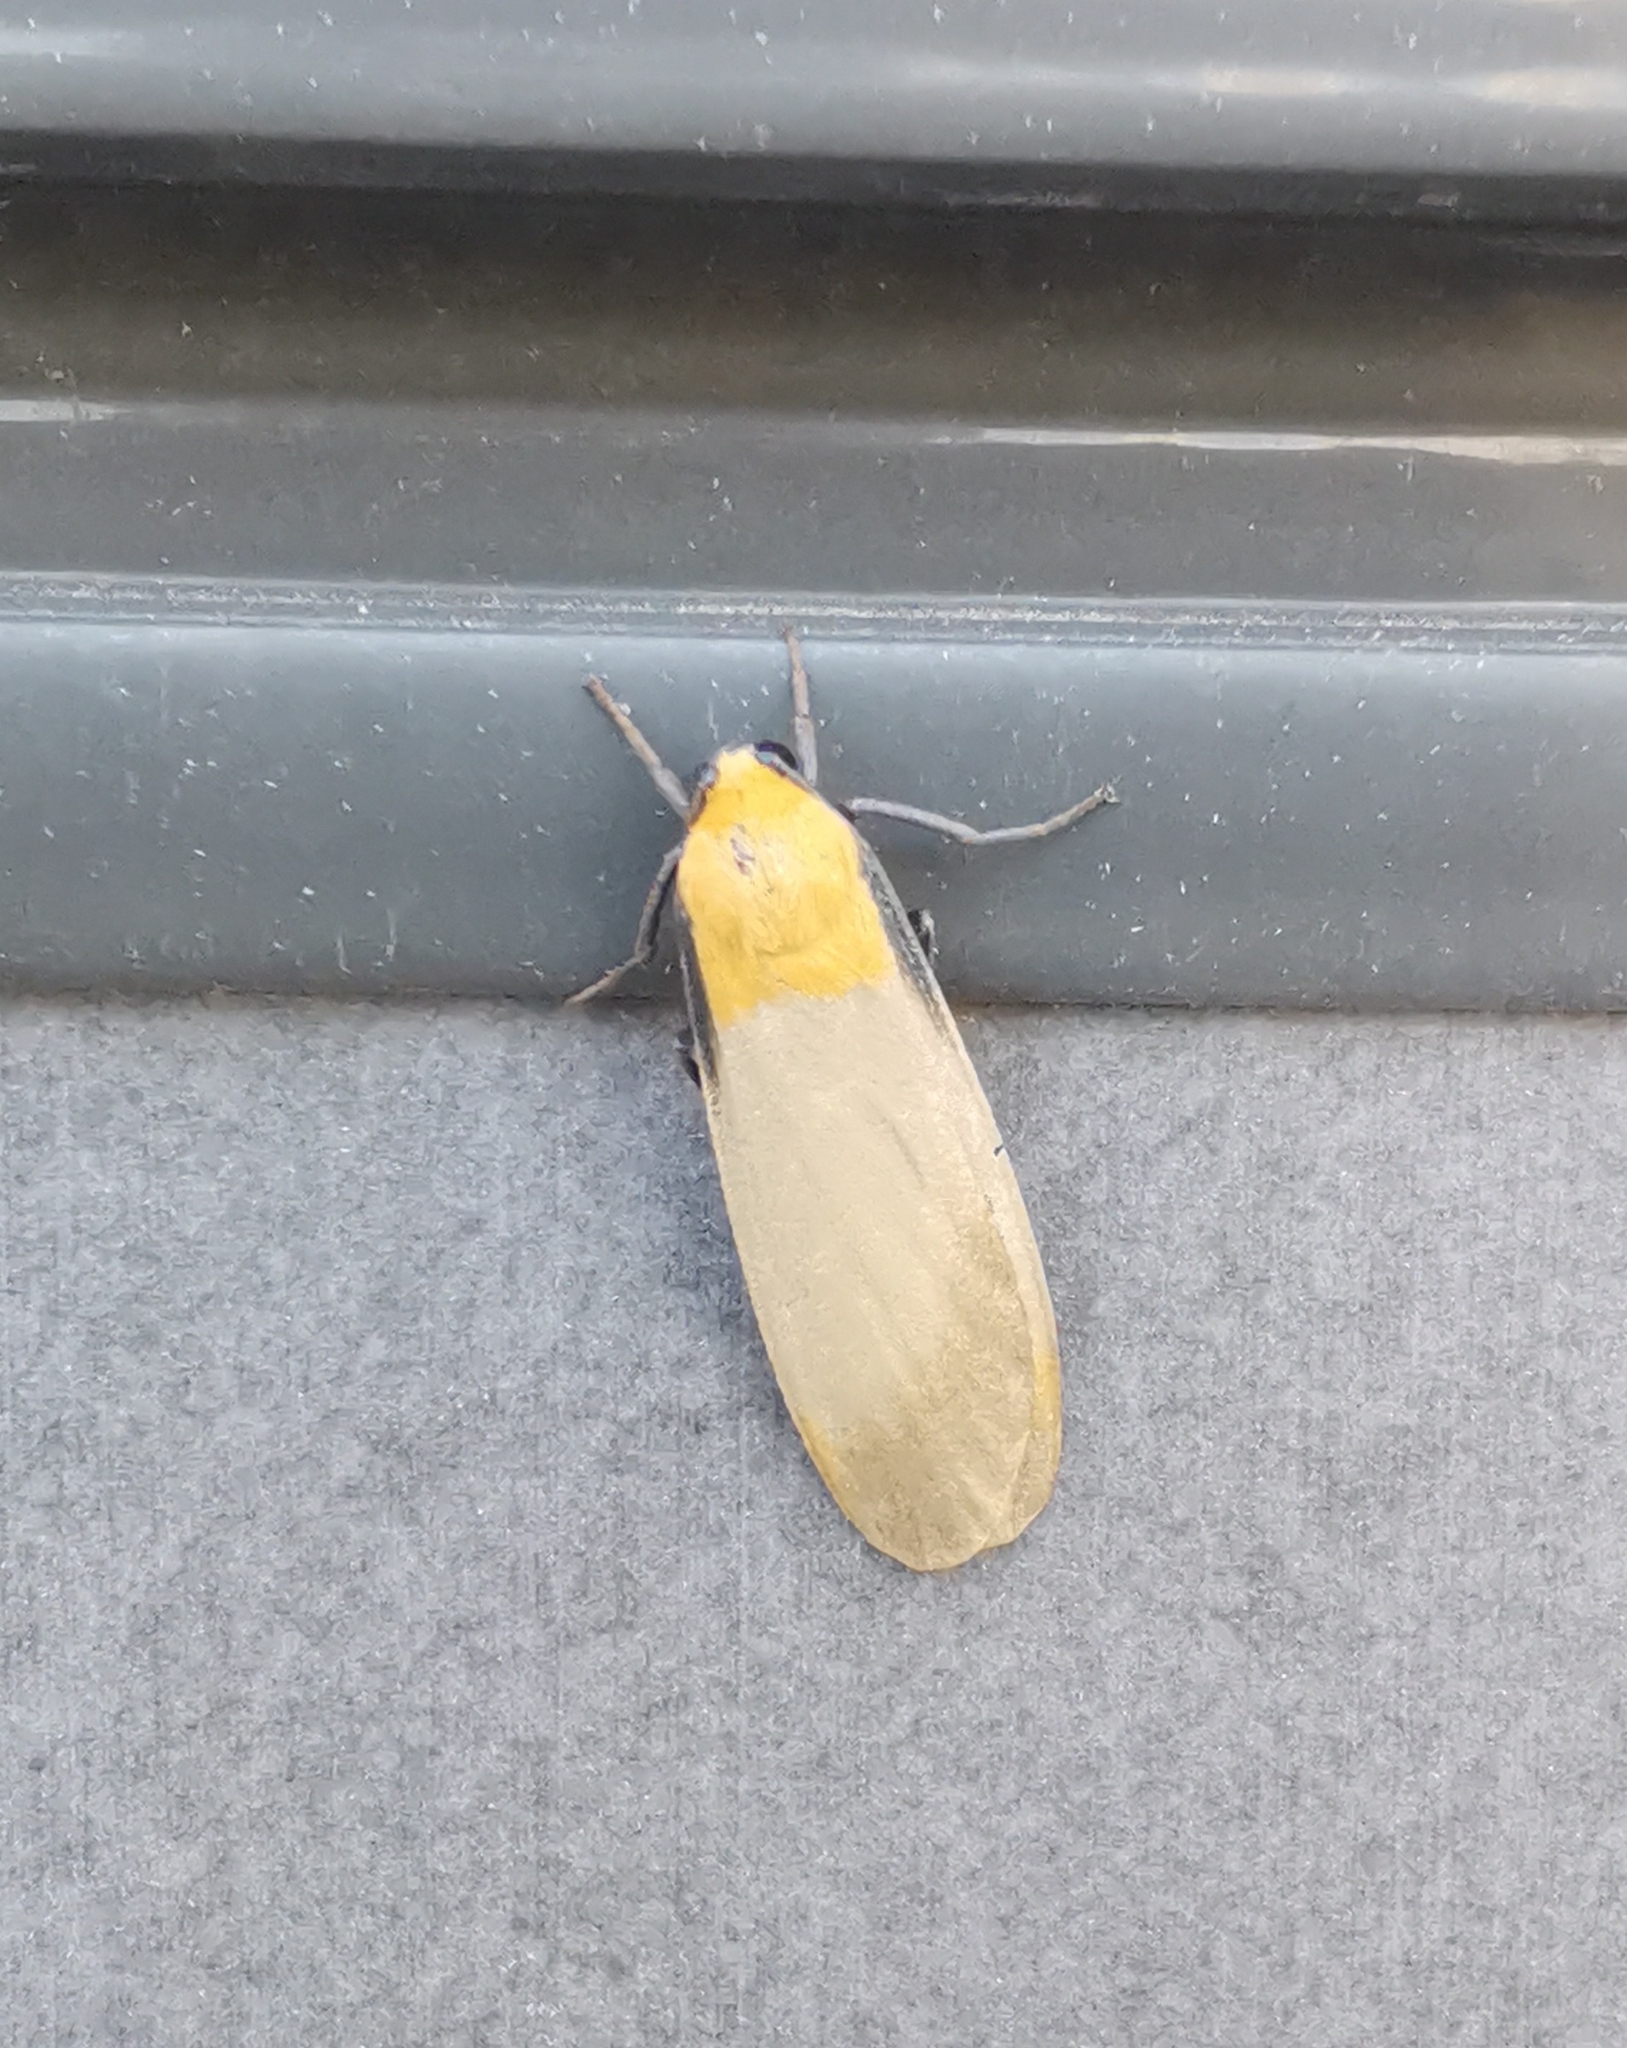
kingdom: Animalia
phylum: Arthropoda
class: Insecta
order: Lepidoptera
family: Erebidae
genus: Lithosia
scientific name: Lithosia quadra
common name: Four-spotted footman
